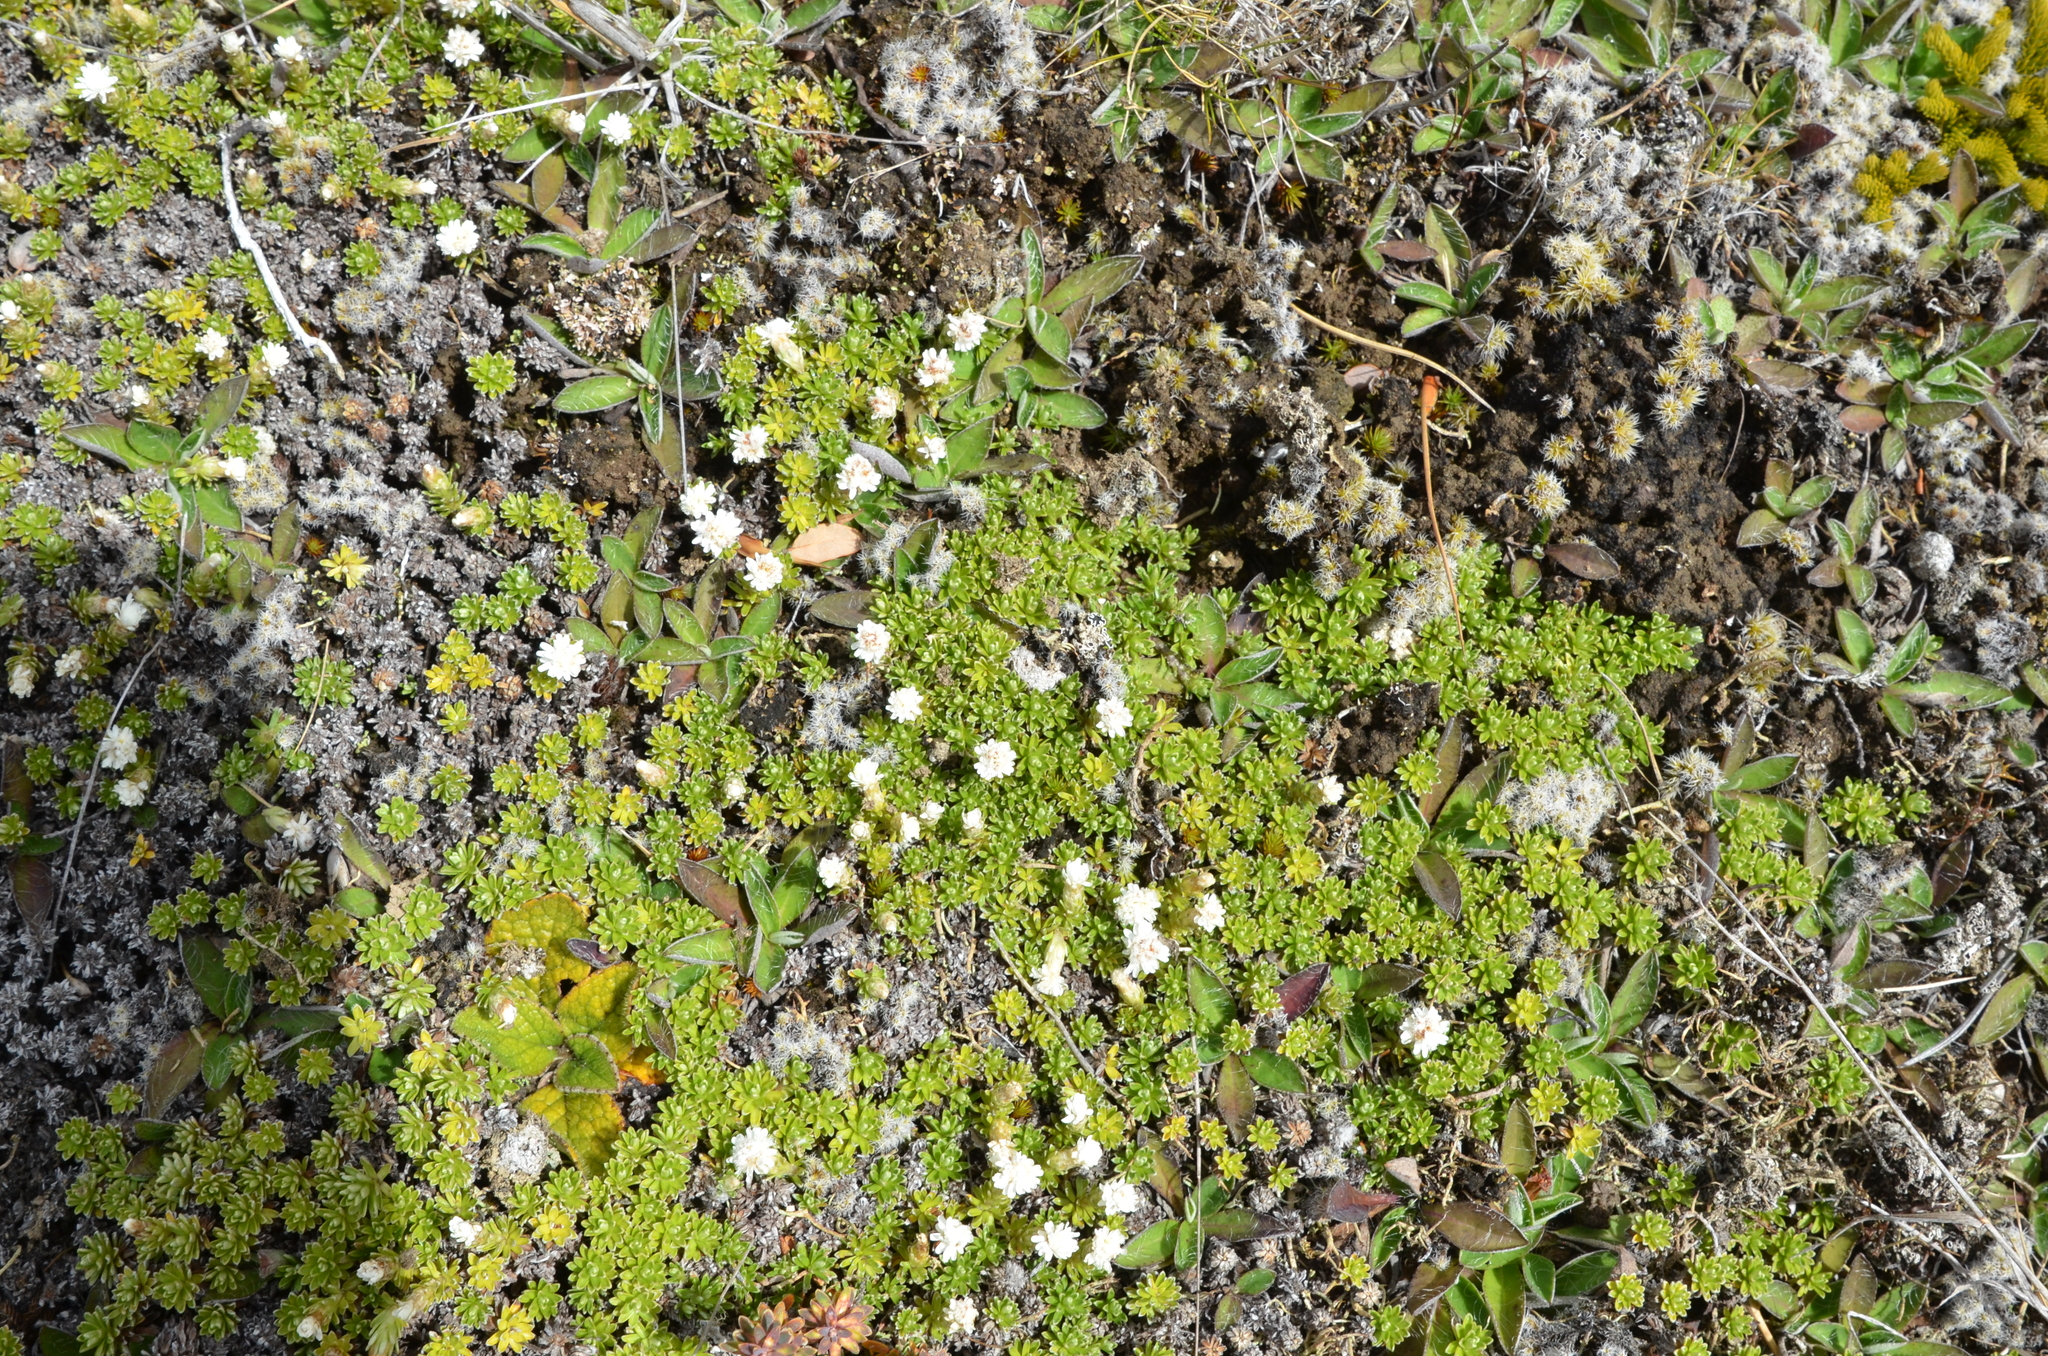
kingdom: Plantae
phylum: Tracheophyta
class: Magnoliopsida
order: Asterales
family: Asteraceae
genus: Raoulia
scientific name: Raoulia subsericea
